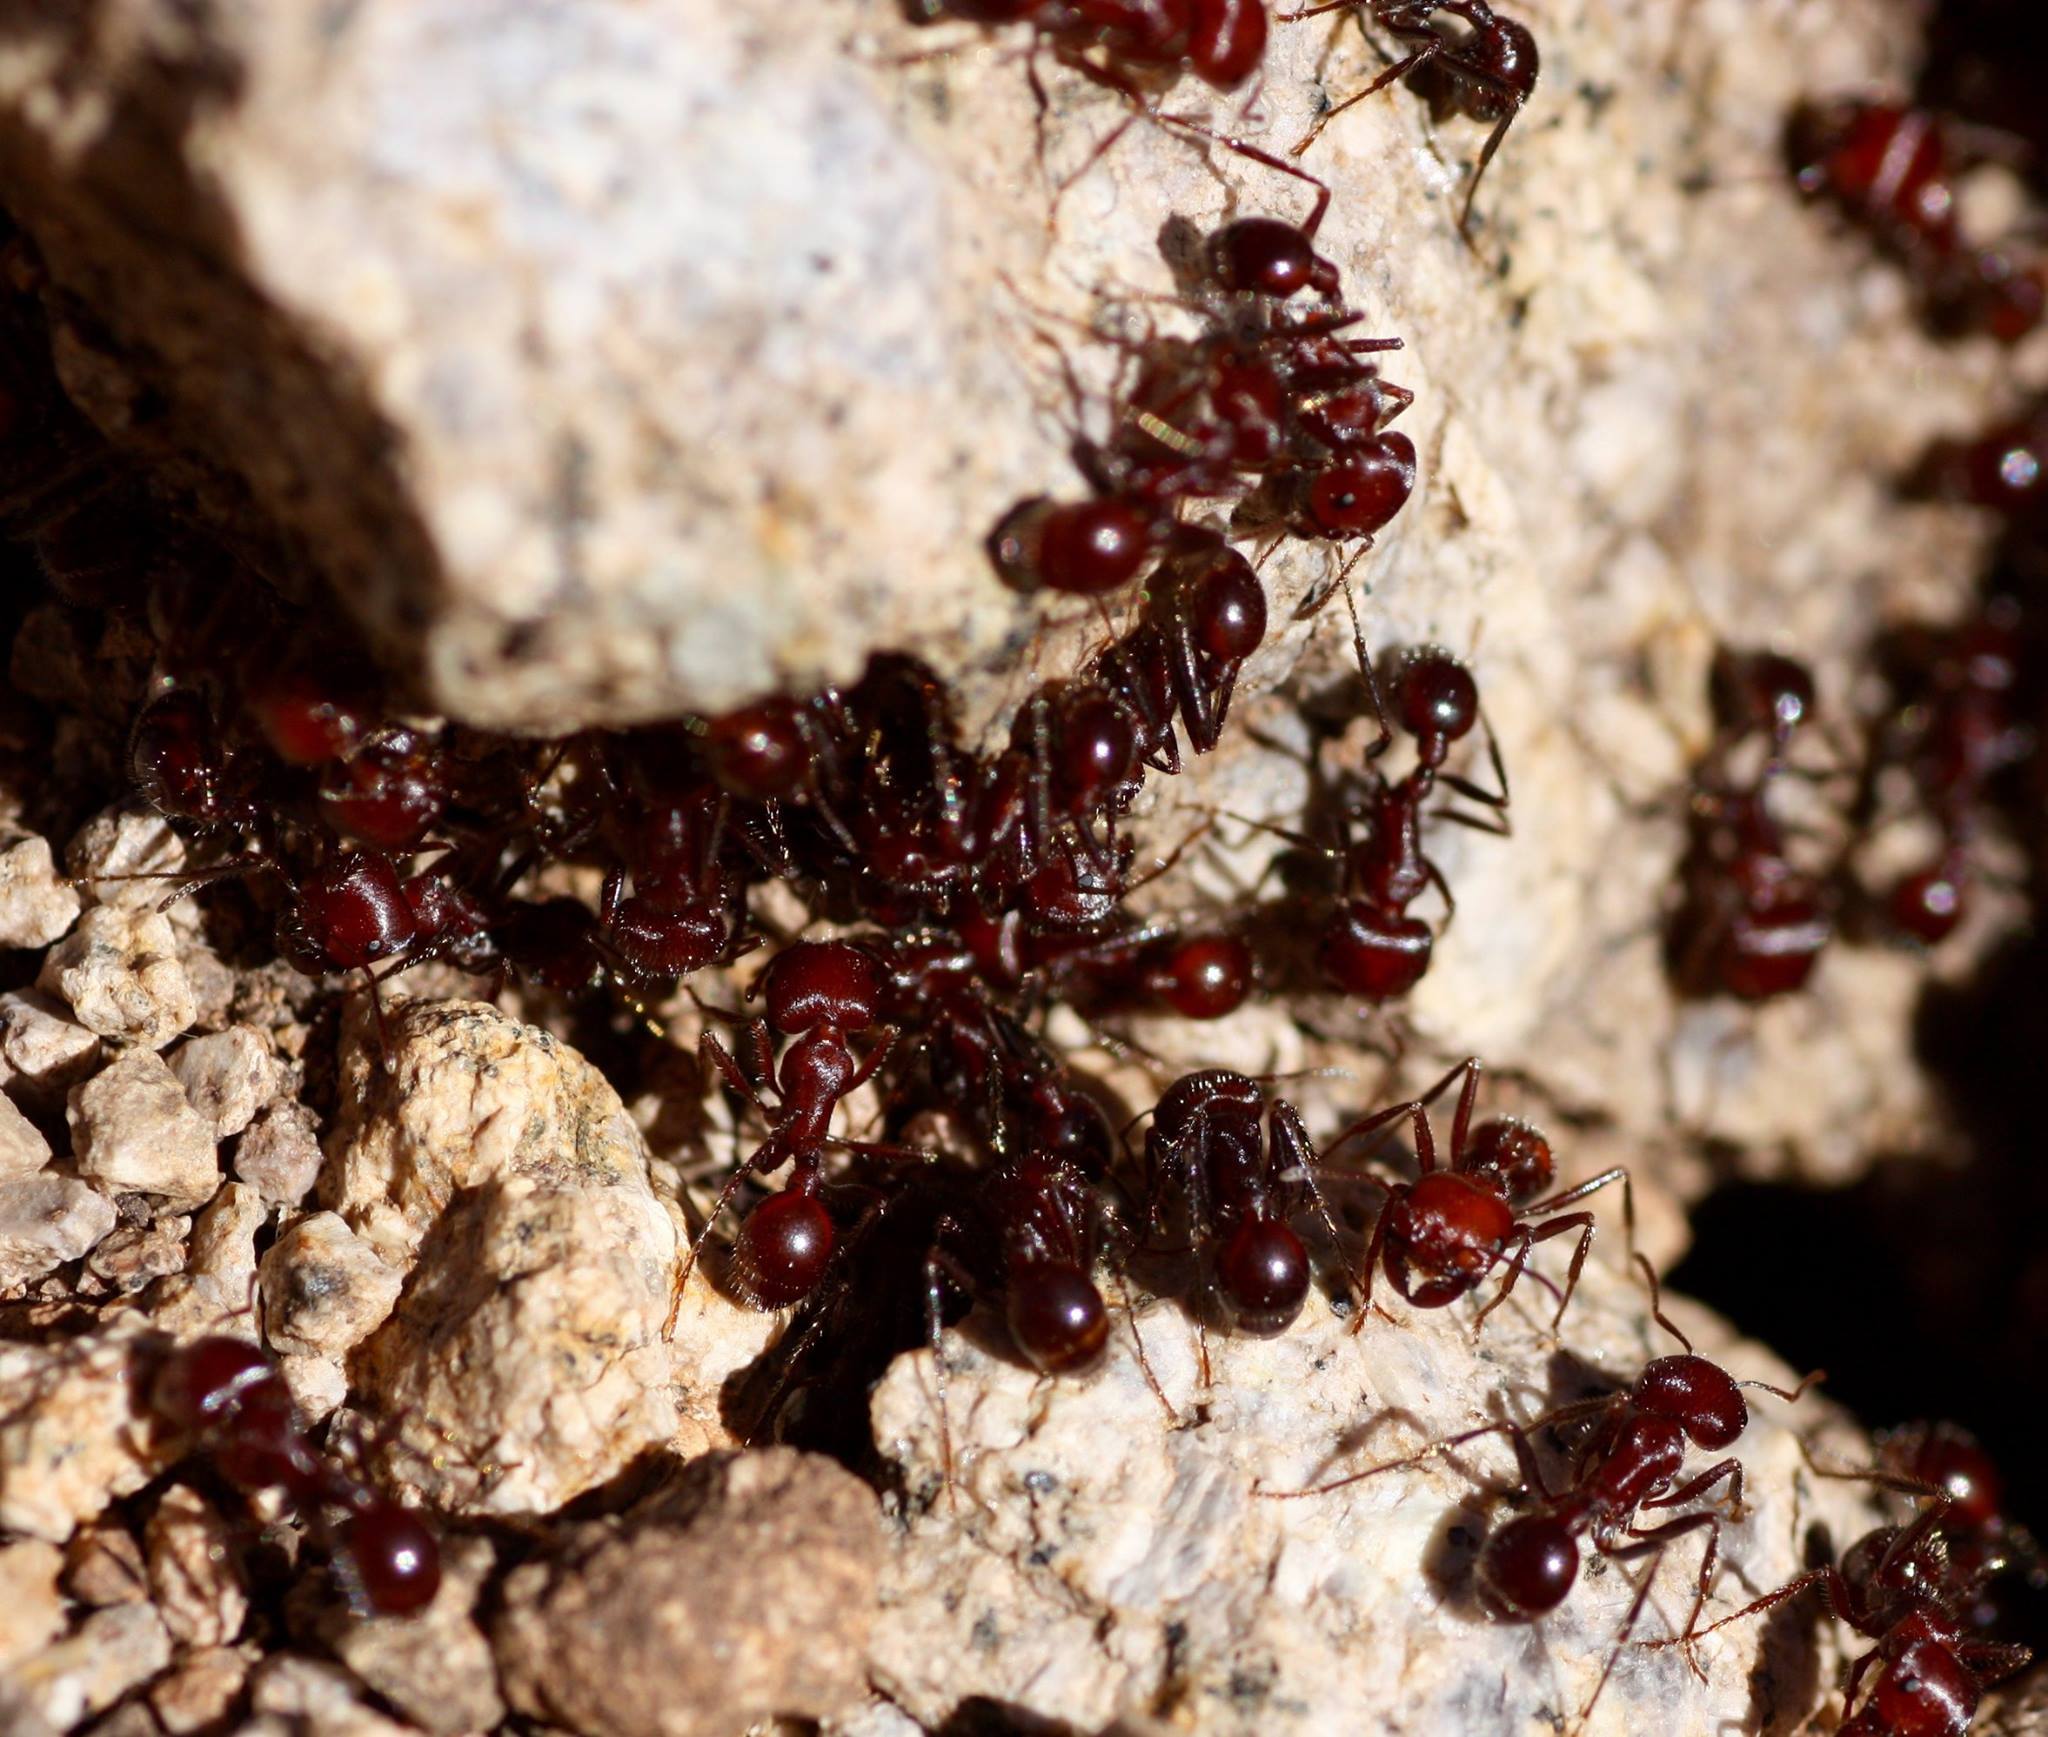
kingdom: Animalia
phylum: Arthropoda
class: Insecta
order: Hymenoptera
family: Formicidae
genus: Pogonomyrmex
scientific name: Pogonomyrmex
